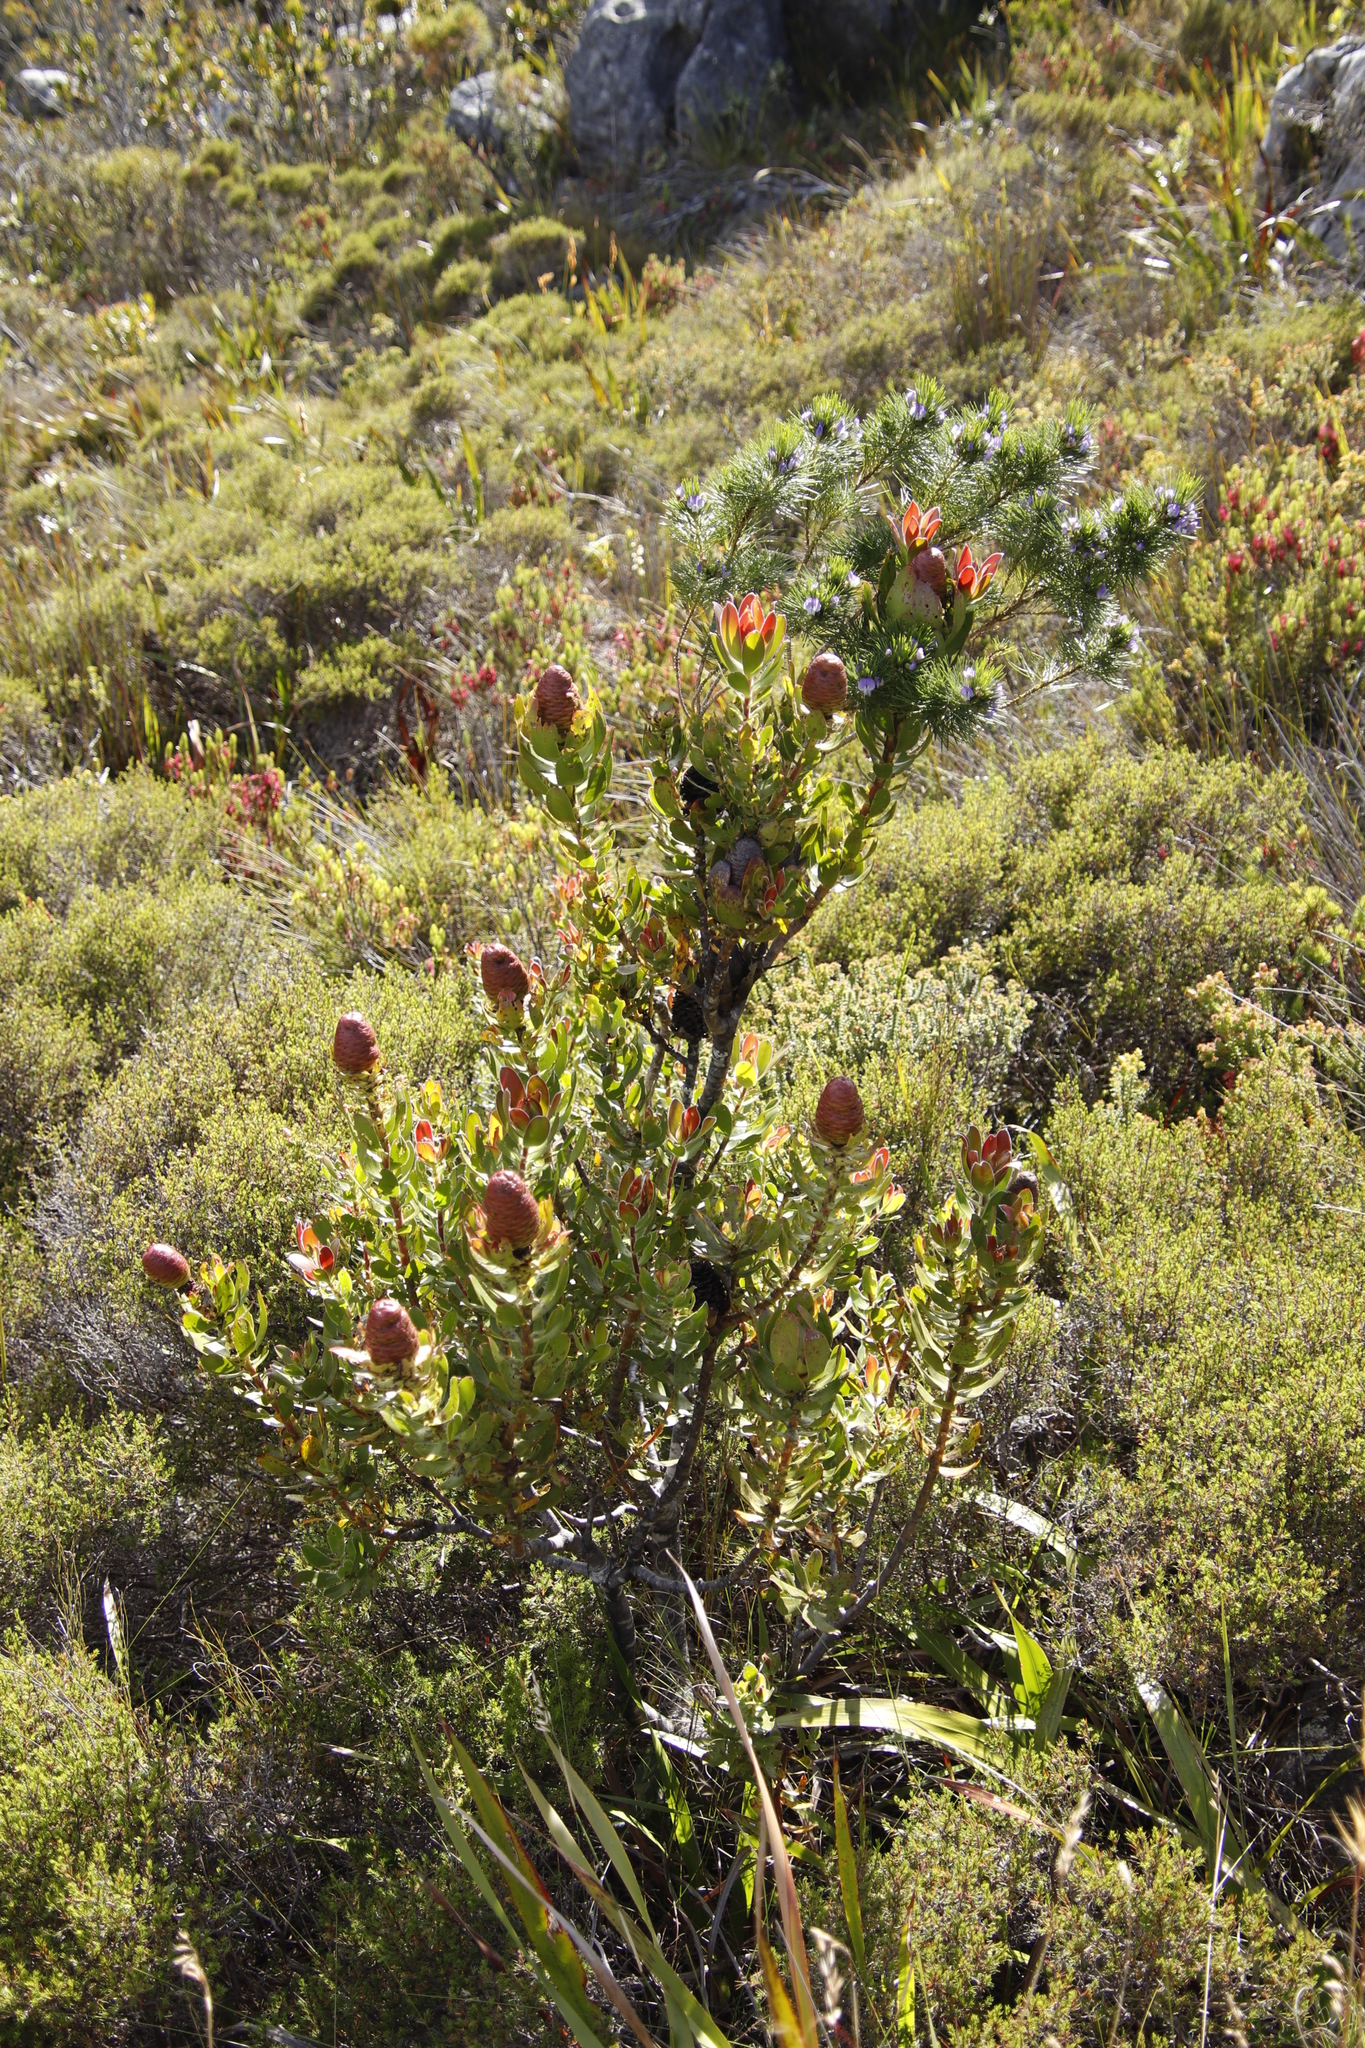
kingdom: Plantae
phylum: Tracheophyta
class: Magnoliopsida
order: Proteales
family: Proteaceae
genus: Leucadendron
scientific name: Leucadendron strobilinum
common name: Mountain rose
